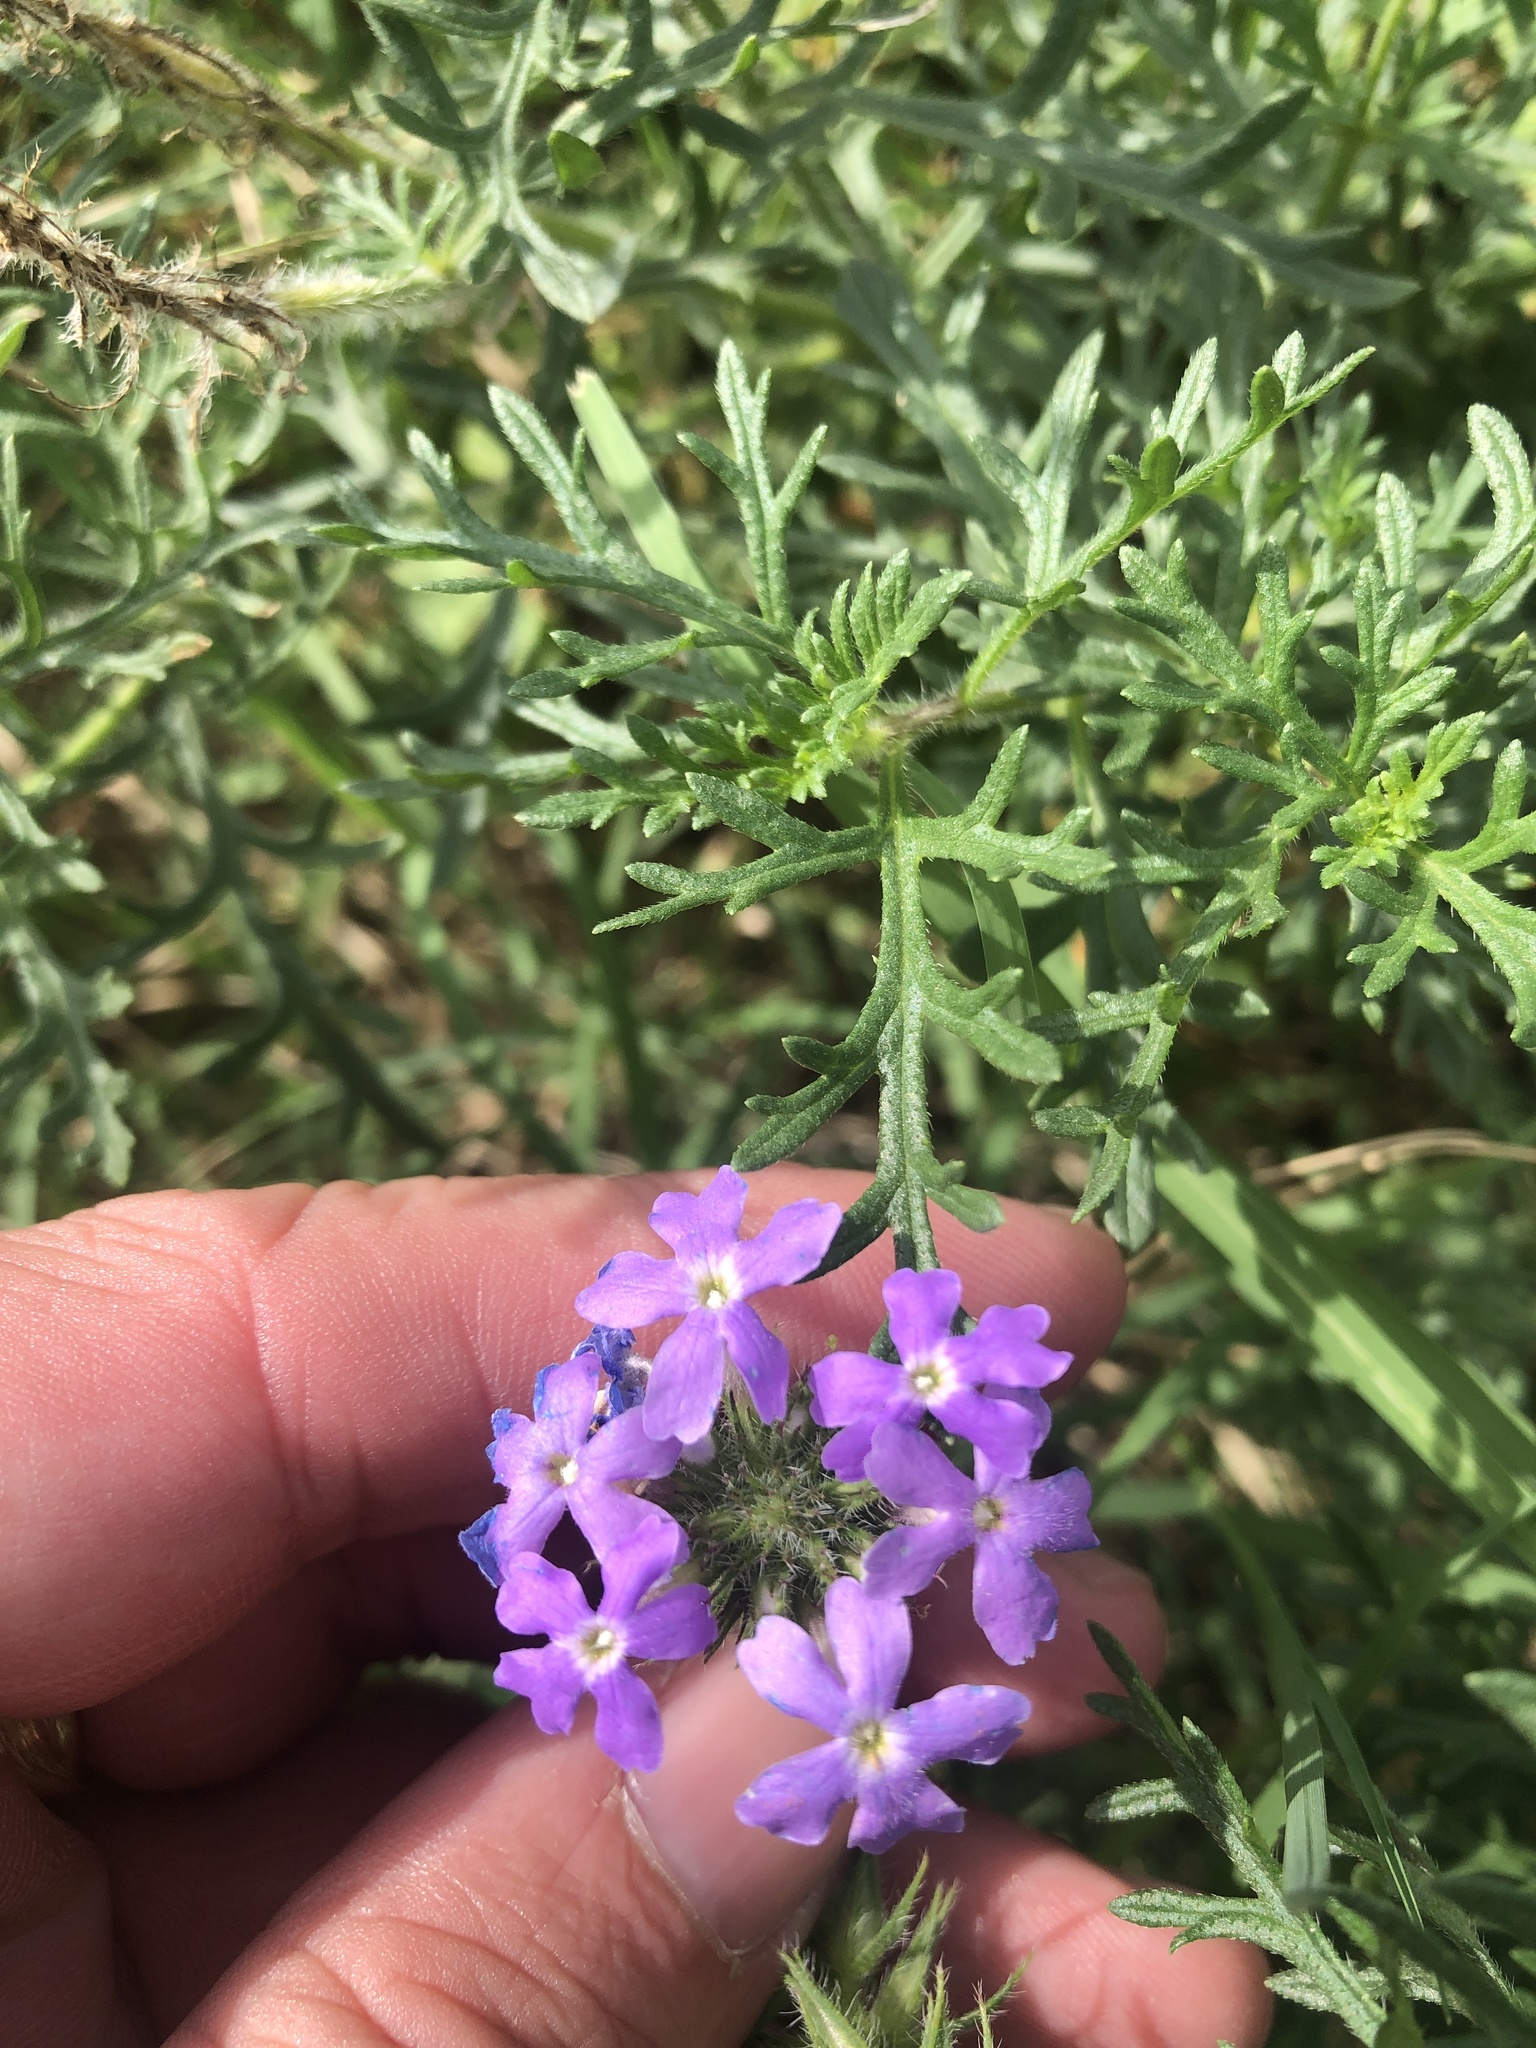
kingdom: Plantae
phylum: Tracheophyta
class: Magnoliopsida
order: Lamiales
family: Verbenaceae
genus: Verbena
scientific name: Verbena bipinnatifida
